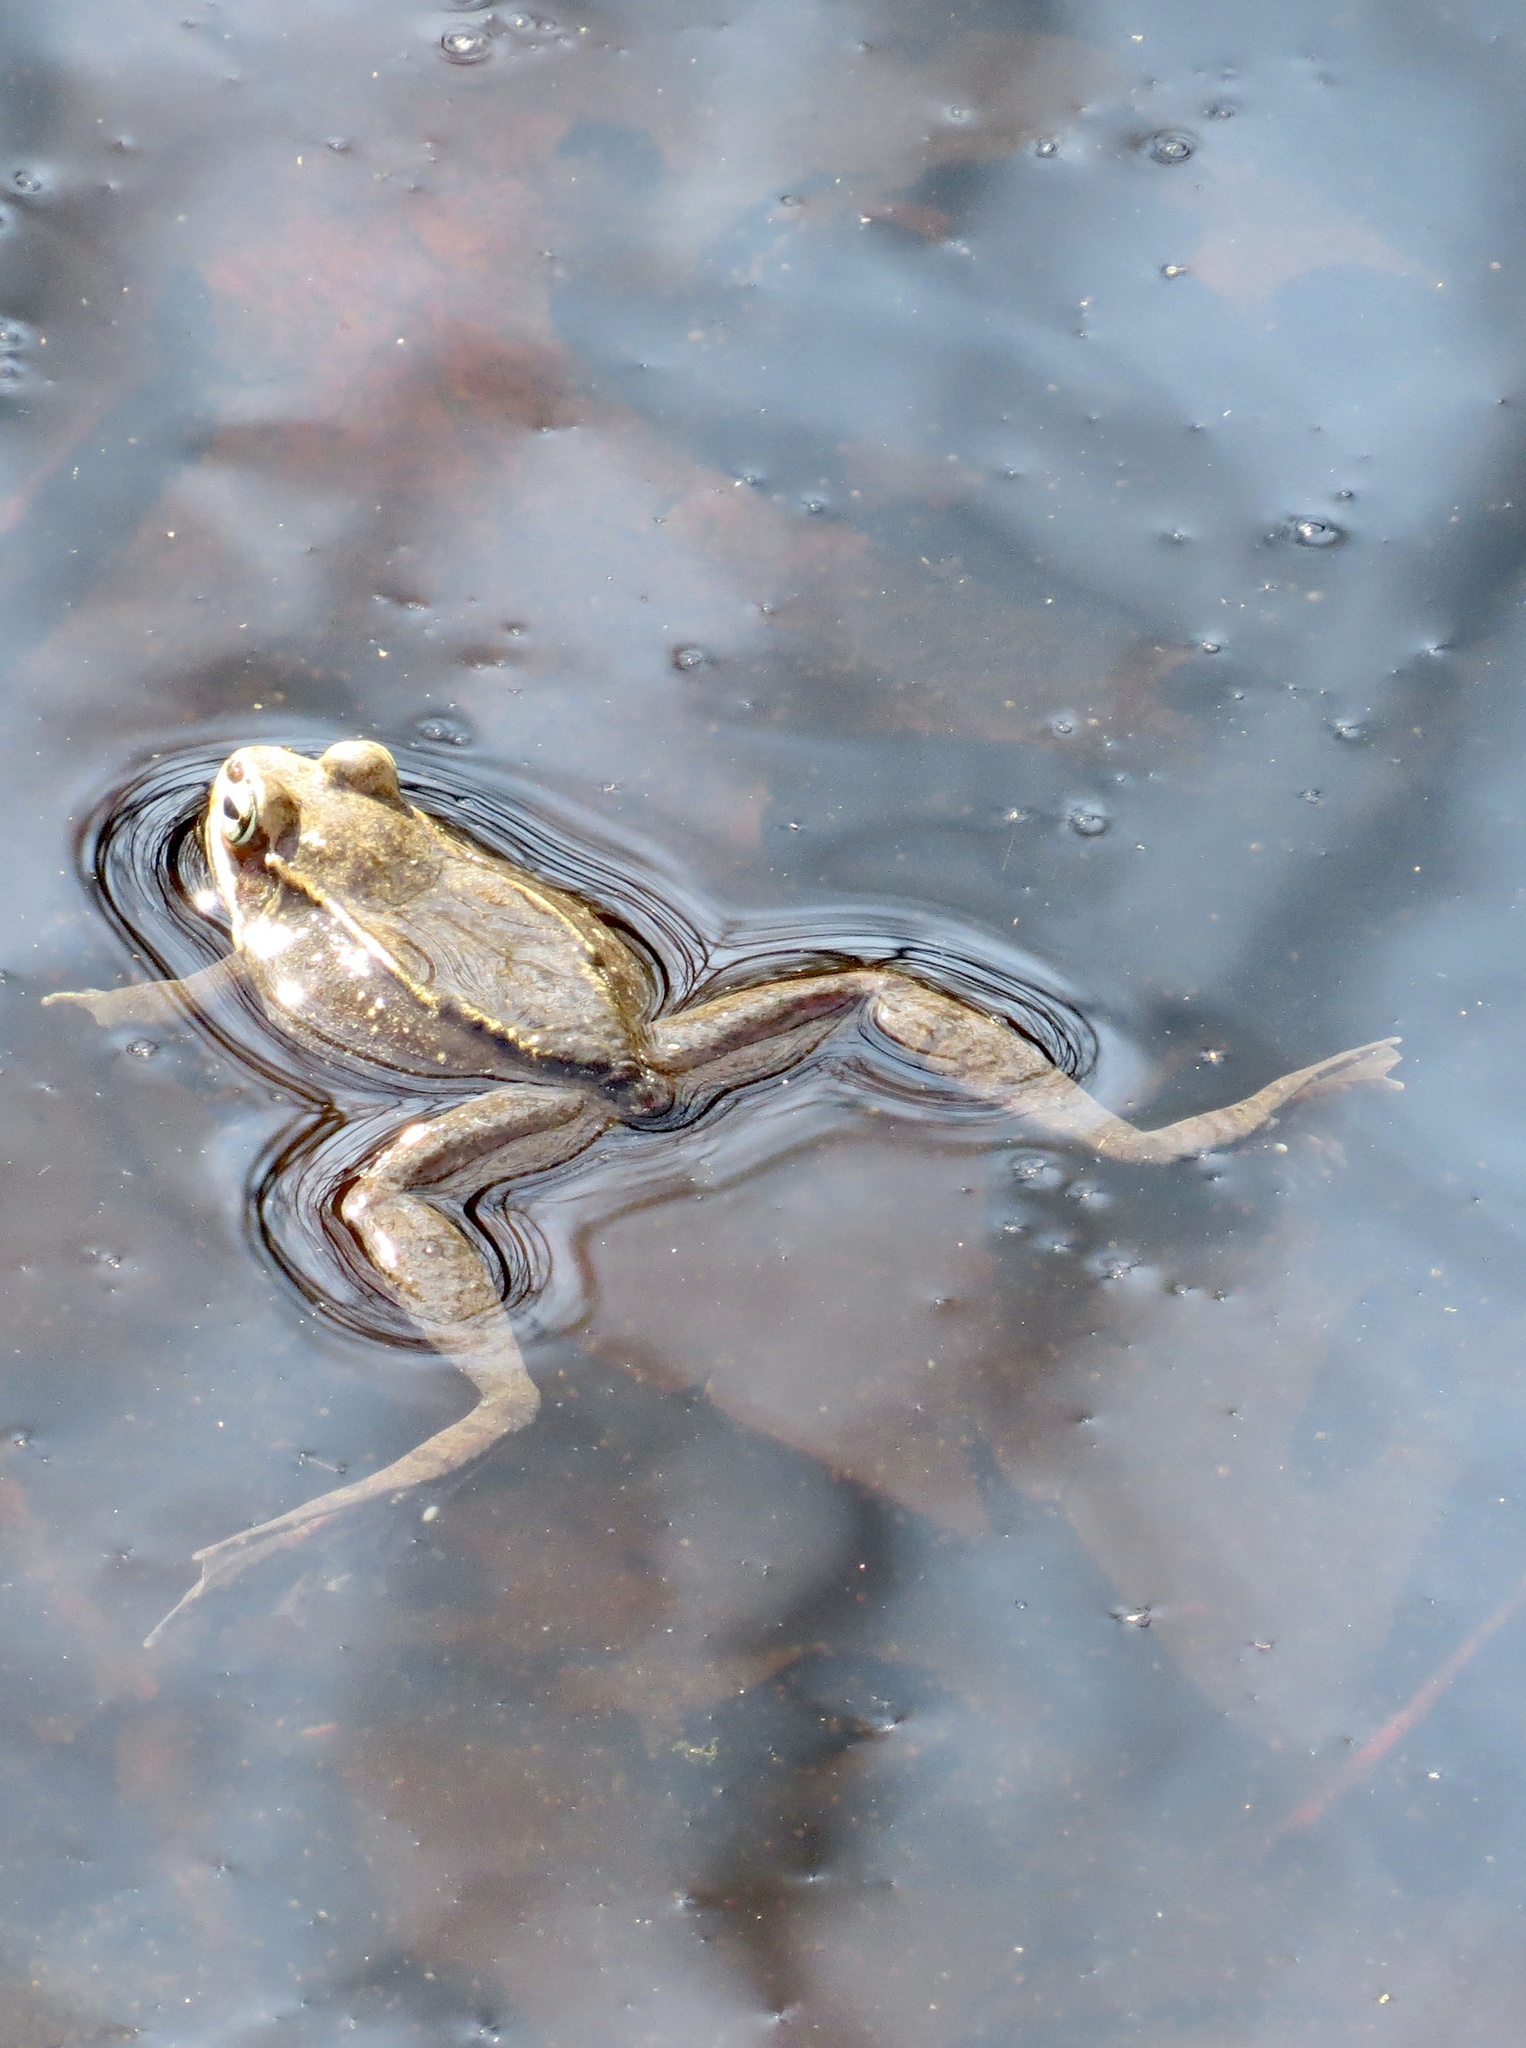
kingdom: Animalia
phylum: Chordata
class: Amphibia
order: Anura
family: Ranidae
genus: Lithobates
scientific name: Lithobates sylvaticus
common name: Wood frog
